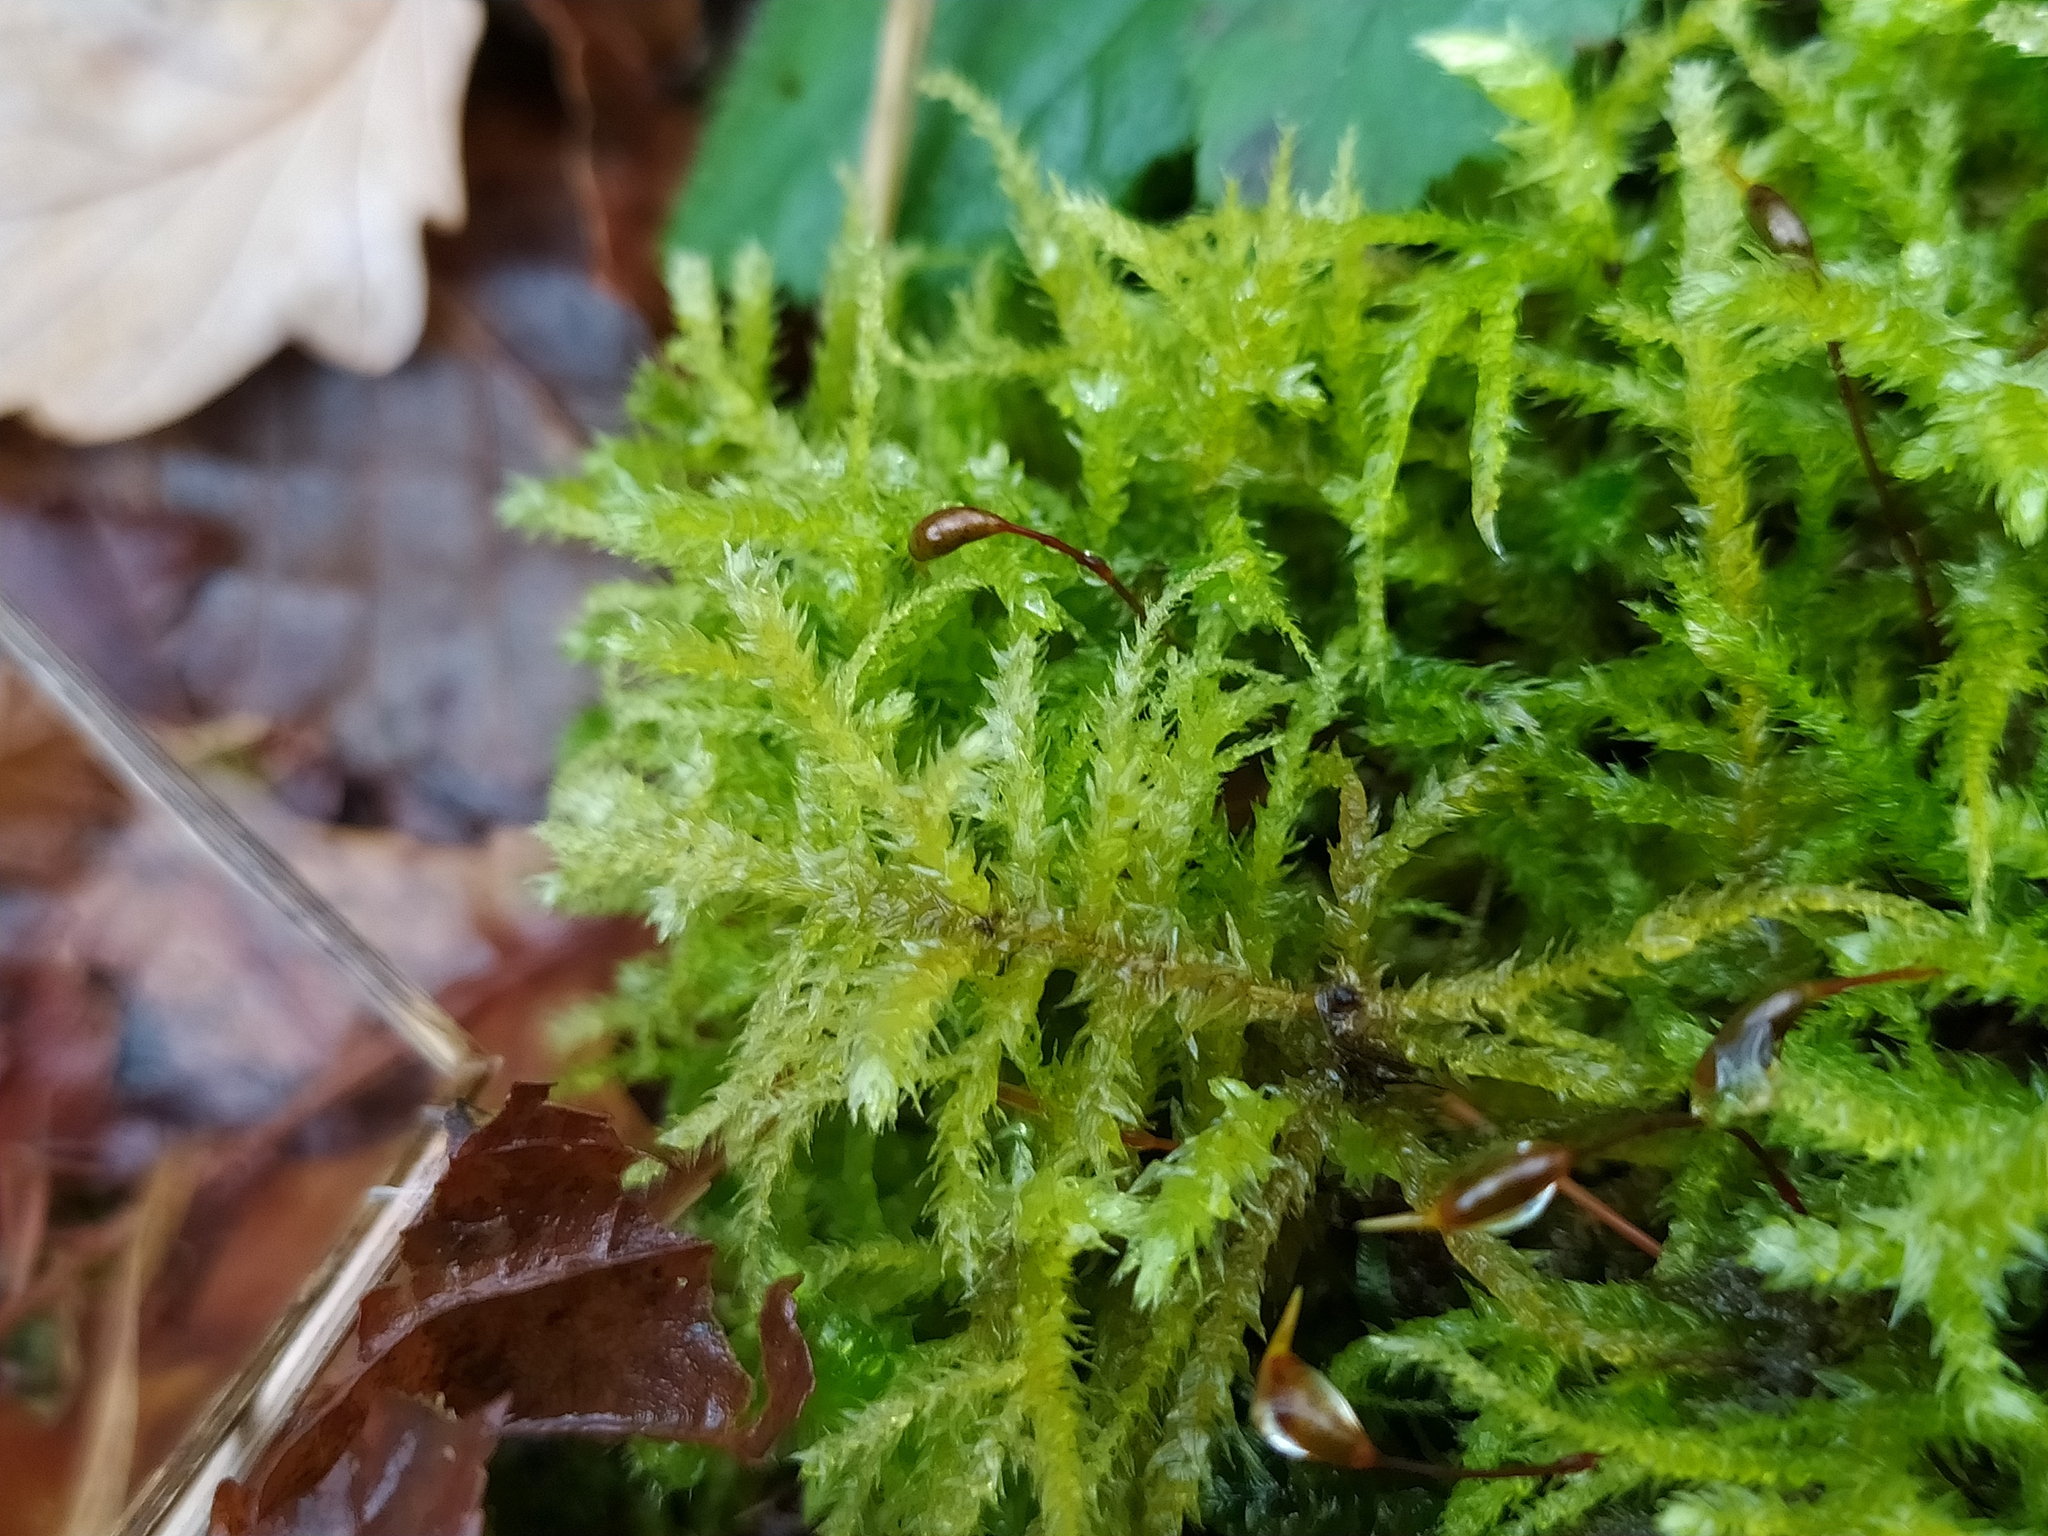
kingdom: Plantae
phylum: Bryophyta
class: Bryopsida
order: Hypnales
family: Brachytheciaceae
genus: Eurhynchium
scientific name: Eurhynchium striatum
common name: Common striated feather-moss
